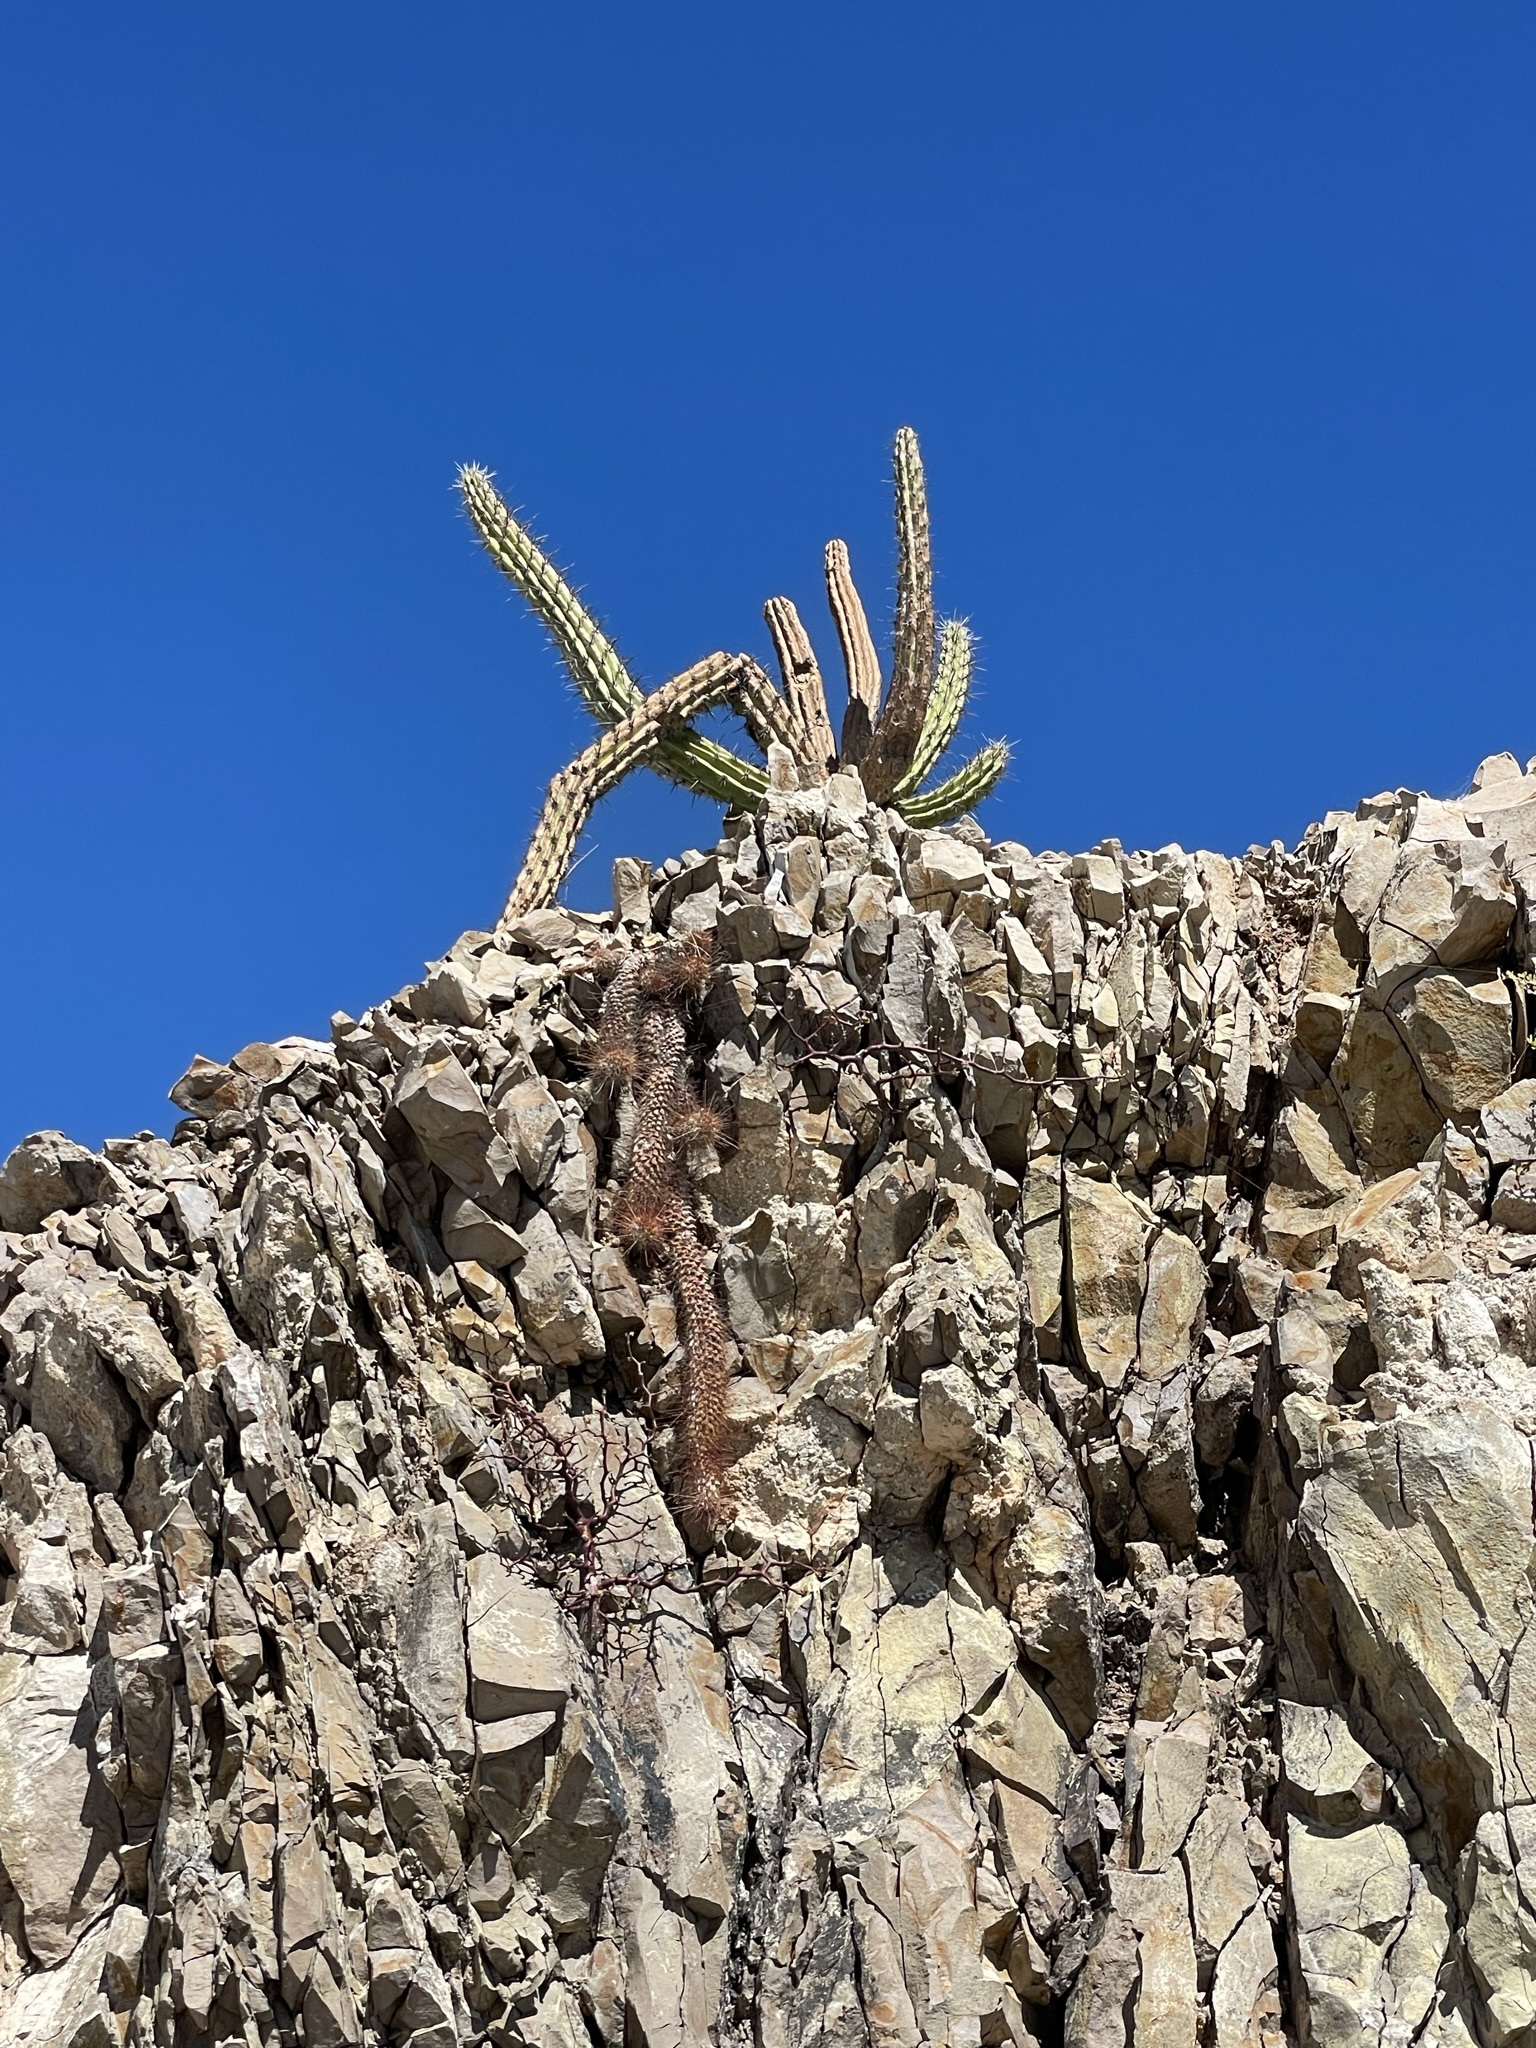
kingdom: Plantae
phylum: Tracheophyta
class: Magnoliopsida
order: Caryophyllales
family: Cactaceae
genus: Cochemiea
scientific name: Cochemiea poselgeri
